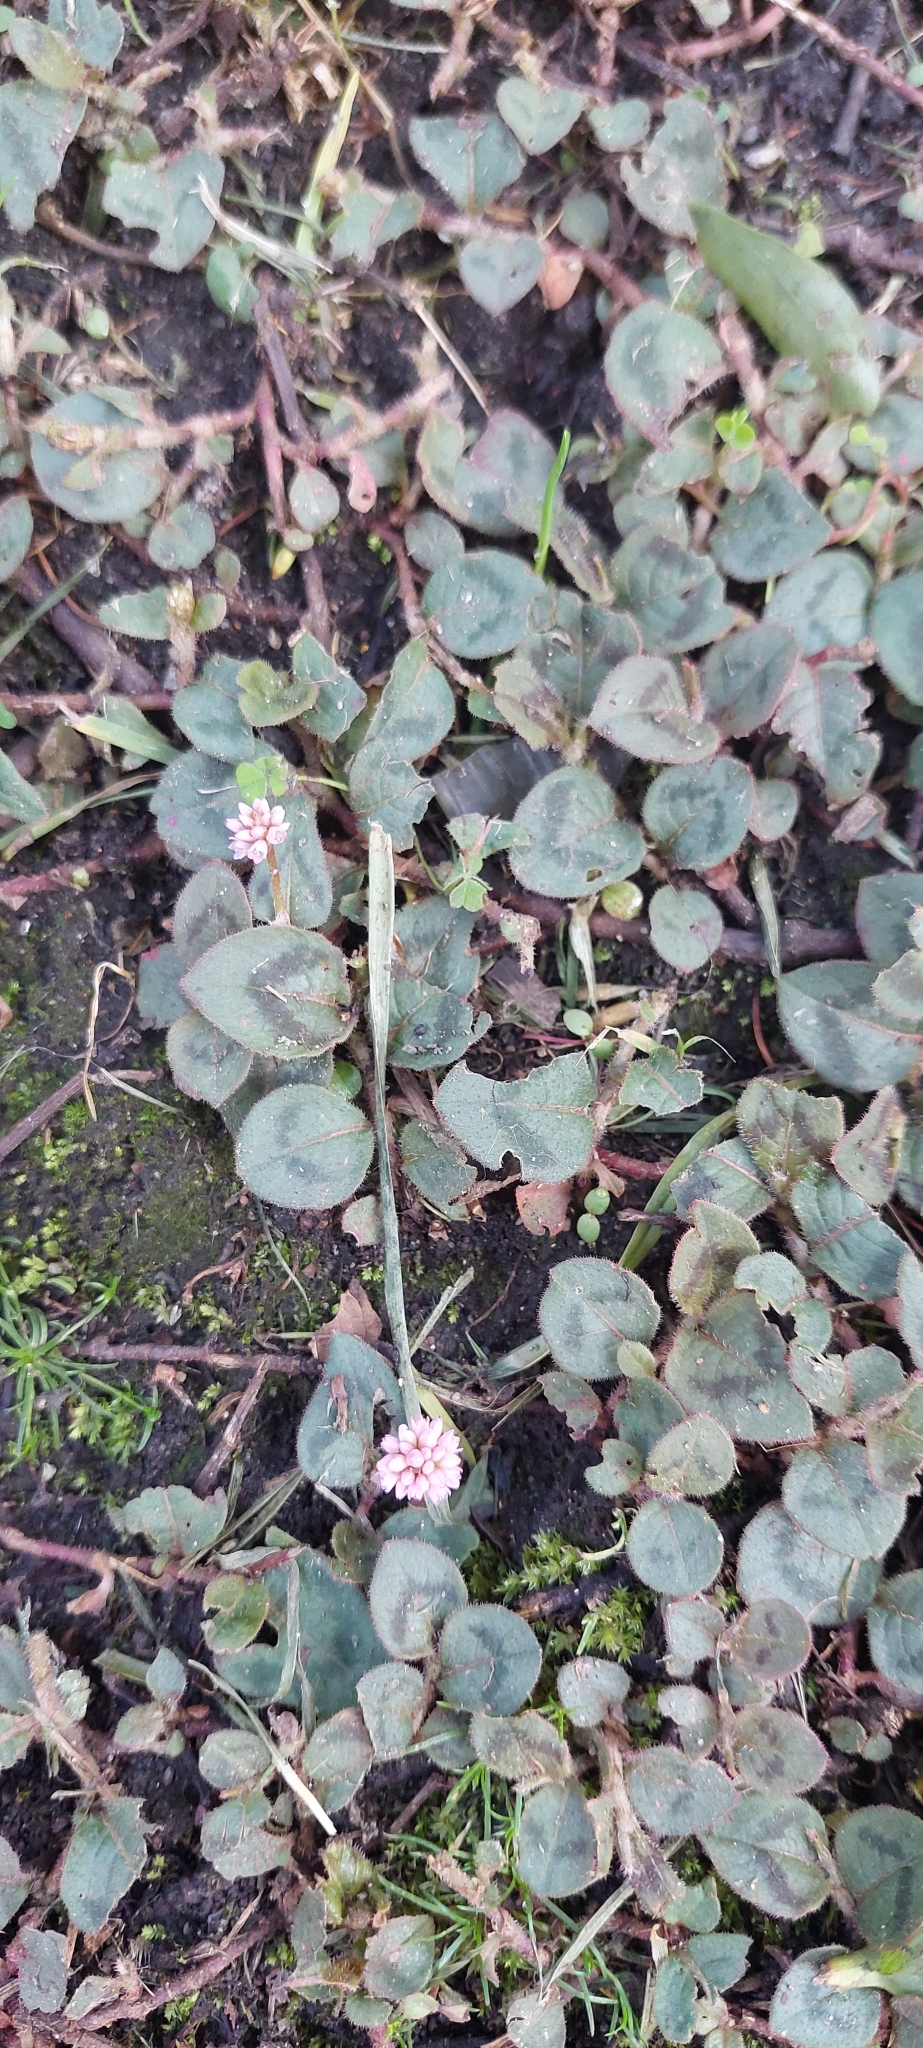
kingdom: Plantae
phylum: Tracheophyta
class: Magnoliopsida
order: Caryophyllales
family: Polygonaceae
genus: Persicaria
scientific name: Persicaria capitata
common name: Pinkhead smartweed
